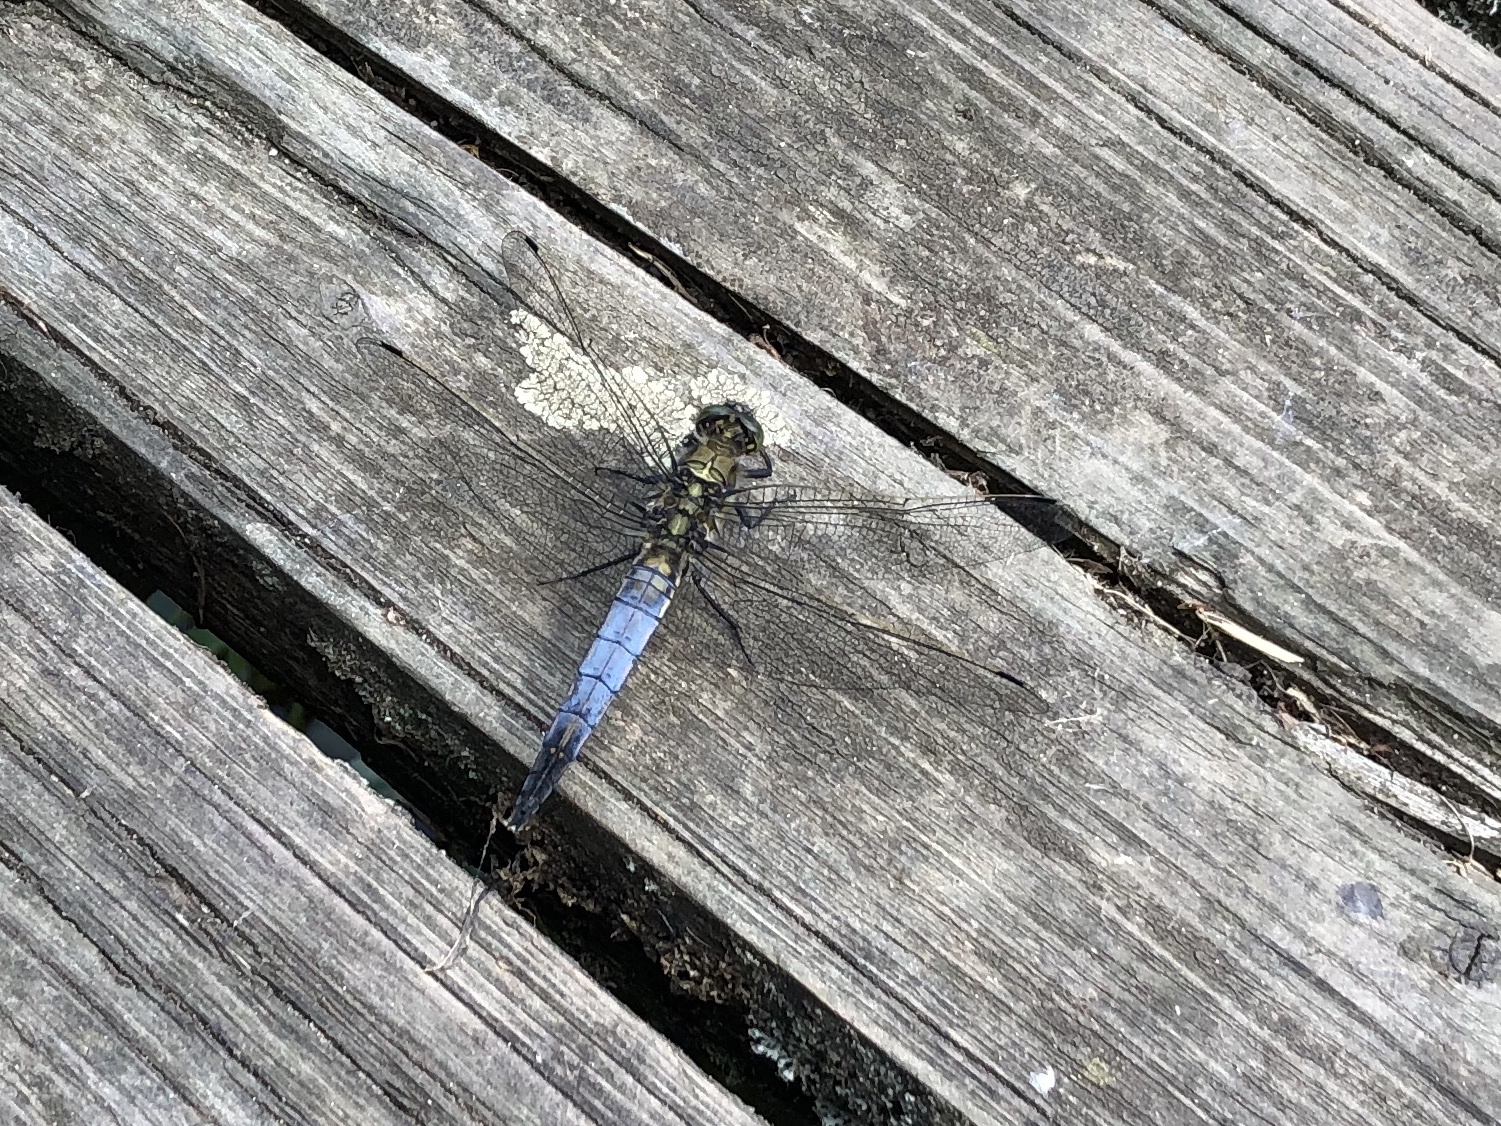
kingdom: Animalia
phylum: Arthropoda
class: Insecta
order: Odonata
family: Libellulidae
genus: Orthetrum
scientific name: Orthetrum cancellatum
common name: Black-tailed skimmer
